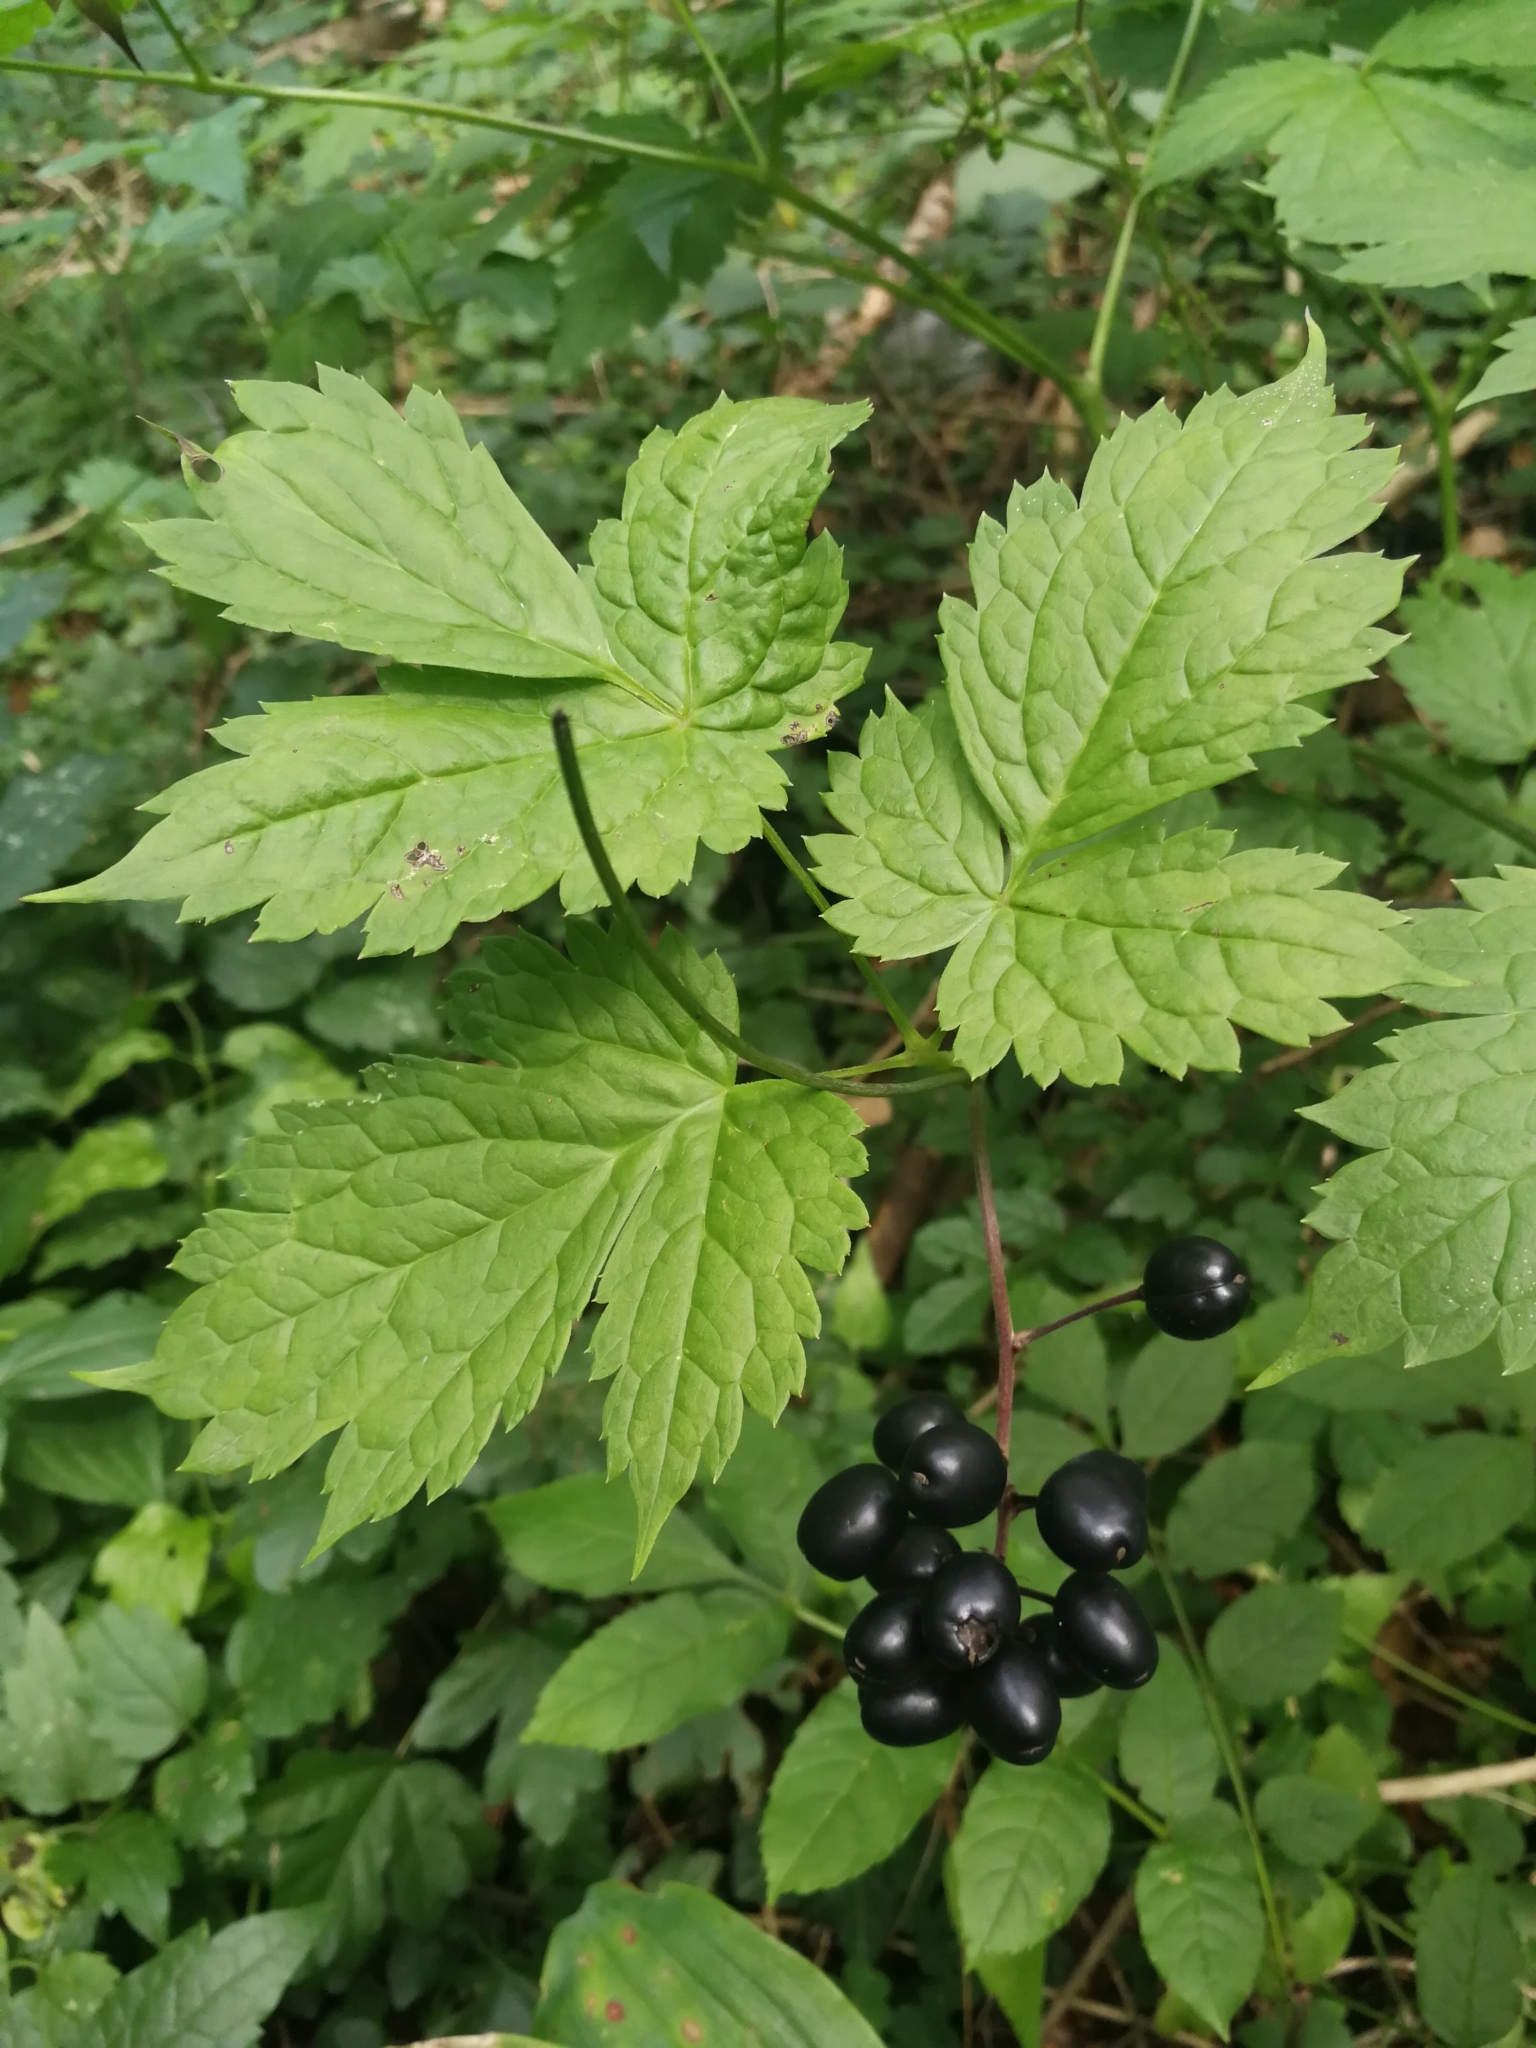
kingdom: Plantae
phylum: Tracheophyta
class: Magnoliopsida
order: Ranunculales
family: Ranunculaceae
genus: Actaea
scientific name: Actaea spicata
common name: Baneberry
